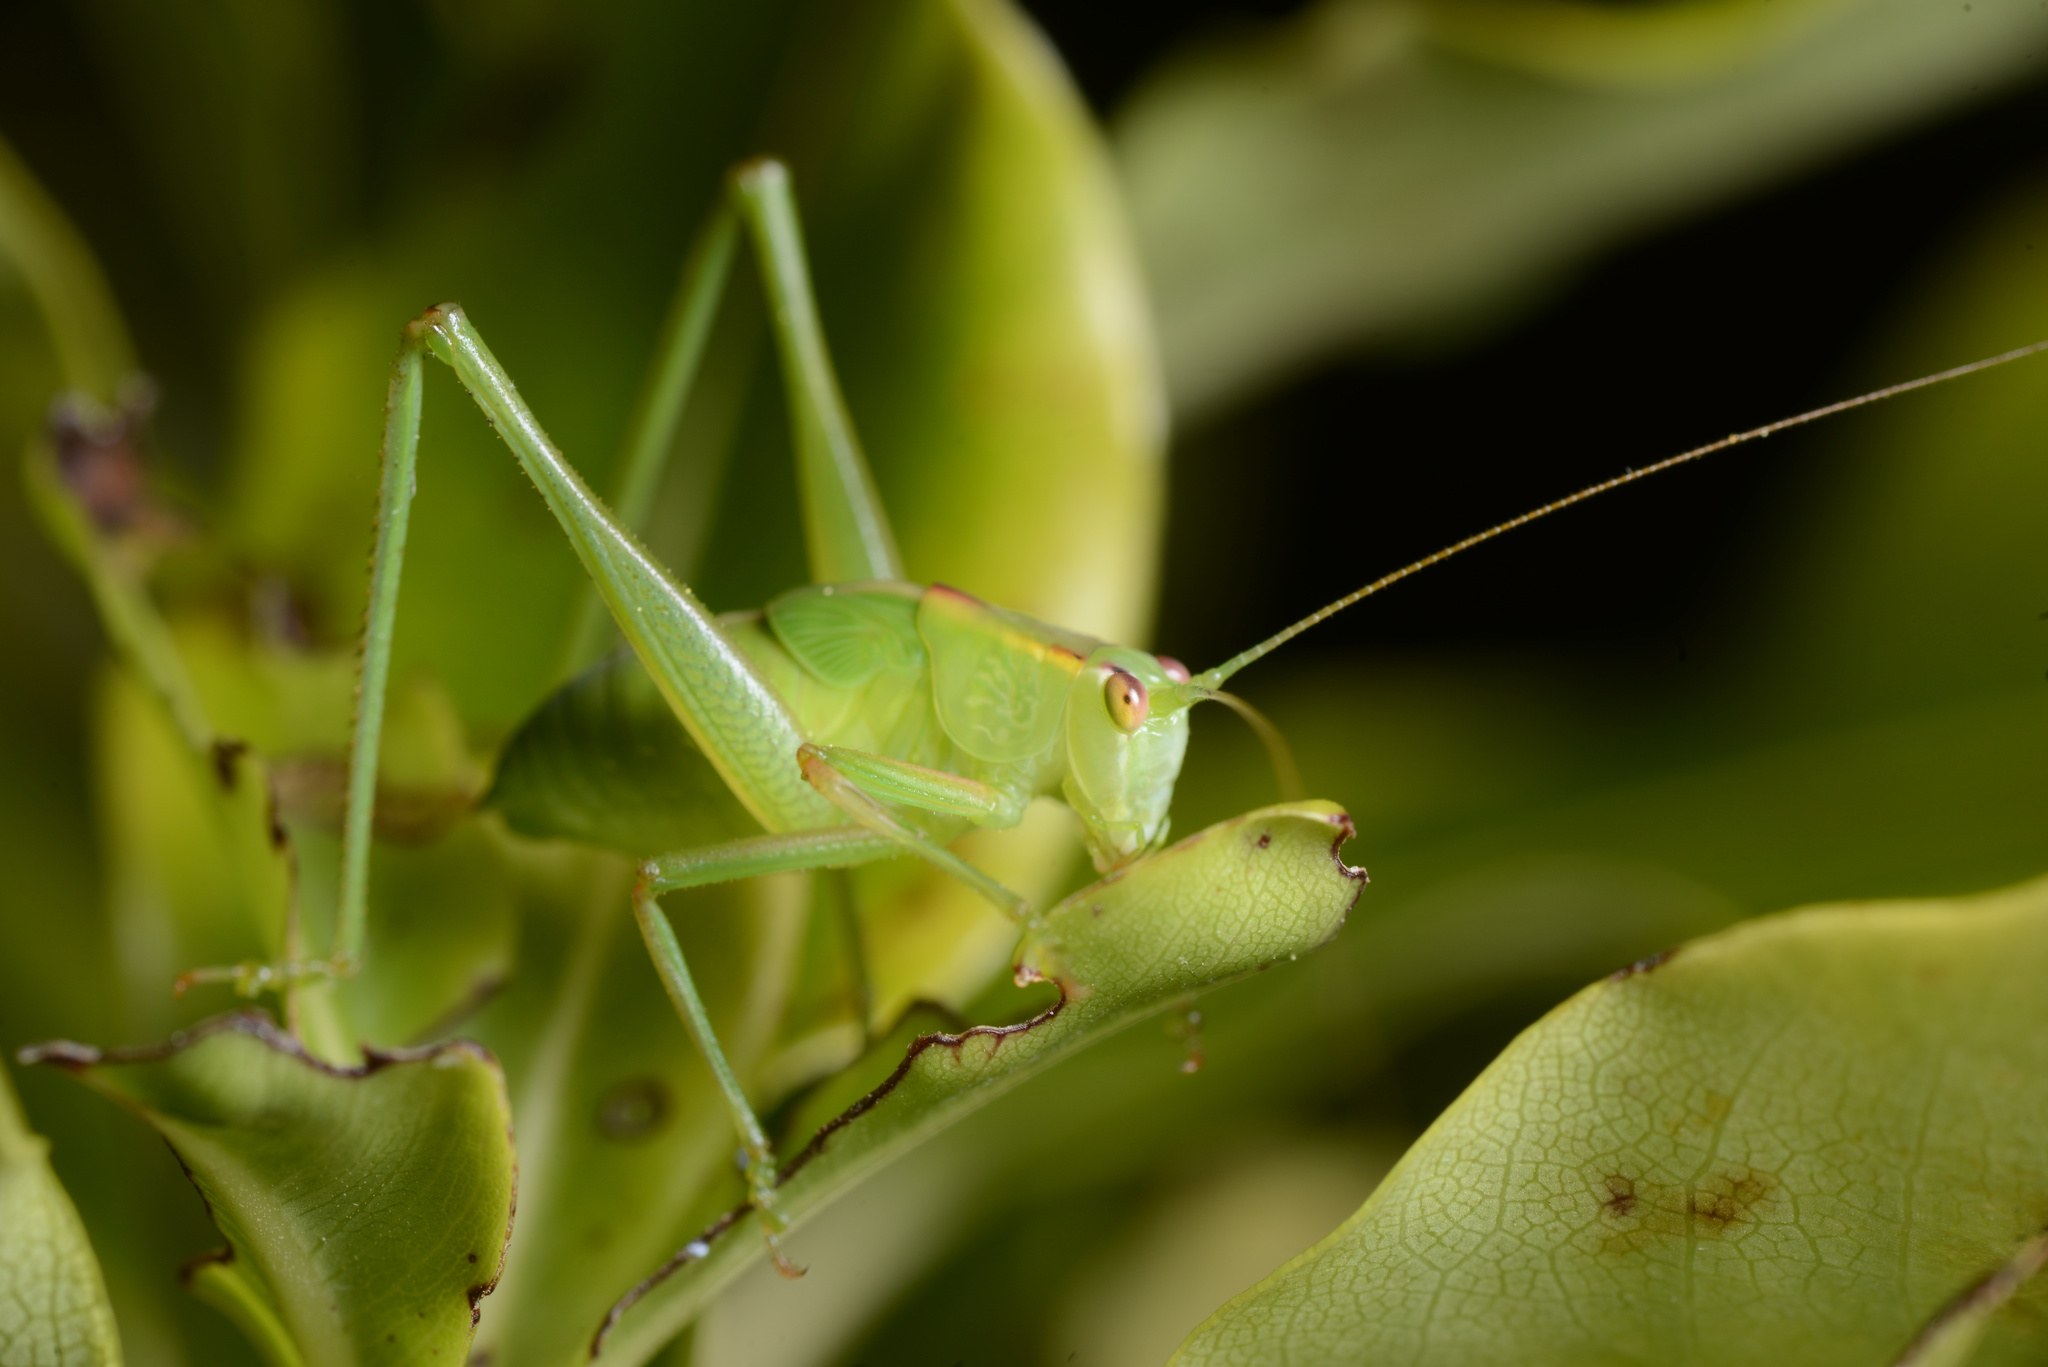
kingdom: Animalia
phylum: Arthropoda
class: Insecta
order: Orthoptera
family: Tettigoniidae
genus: Caedicia
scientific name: Caedicia simplex
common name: Common garden katydid
